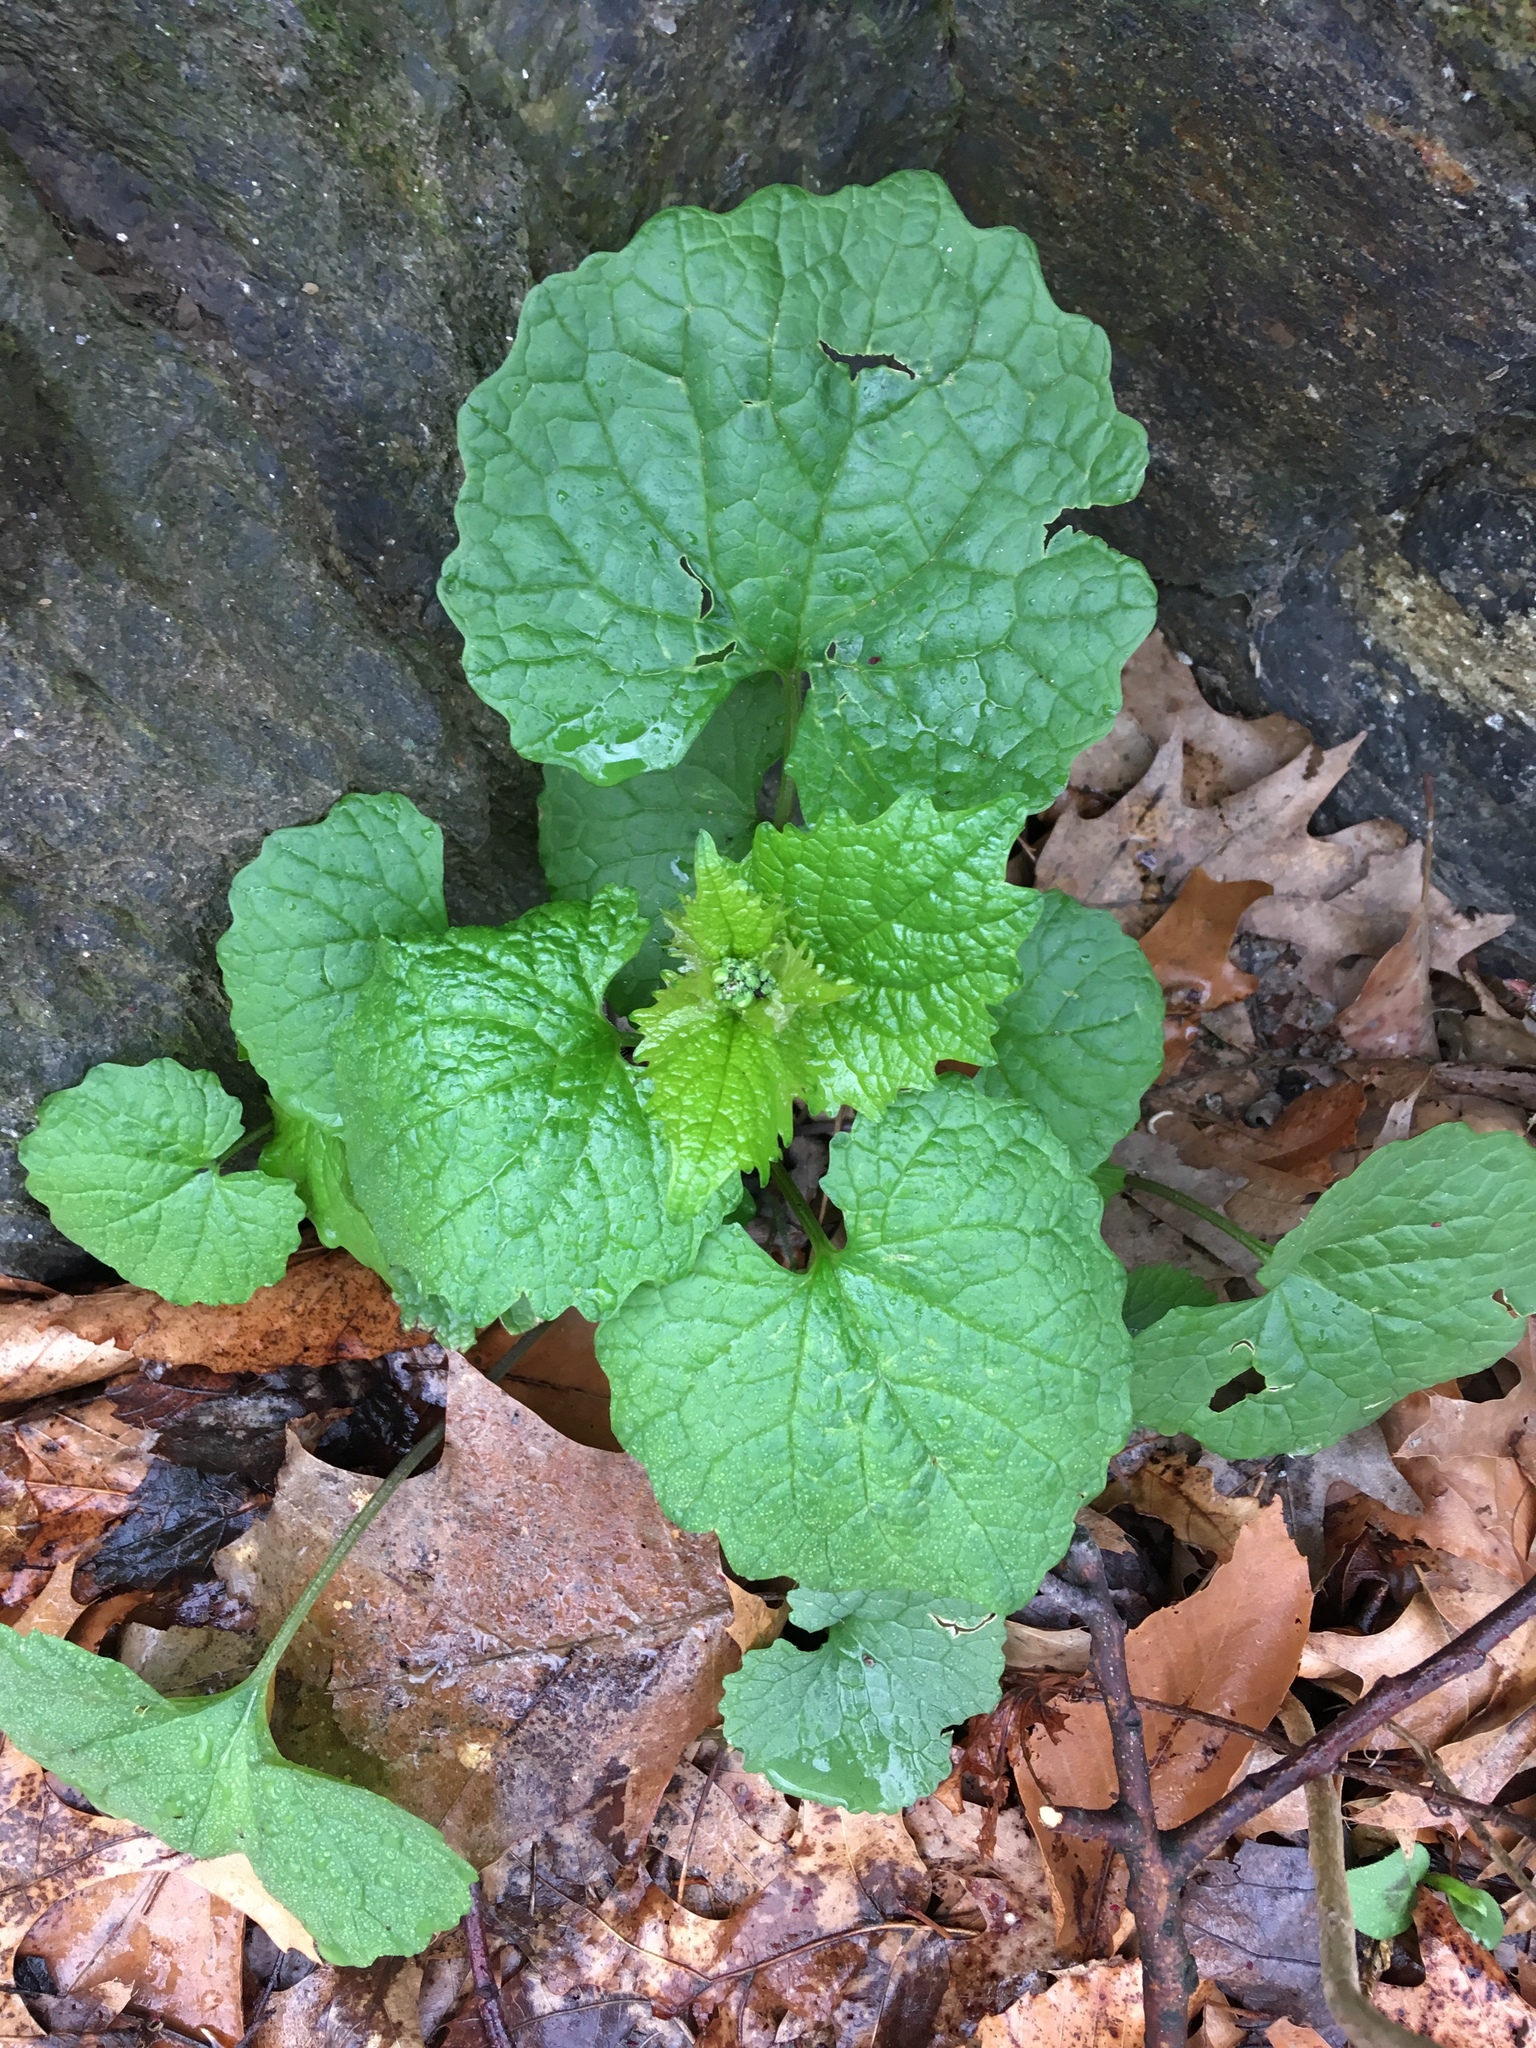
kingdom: Plantae
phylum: Tracheophyta
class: Magnoliopsida
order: Brassicales
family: Brassicaceae
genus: Alliaria
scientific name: Alliaria petiolata
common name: Garlic mustard
